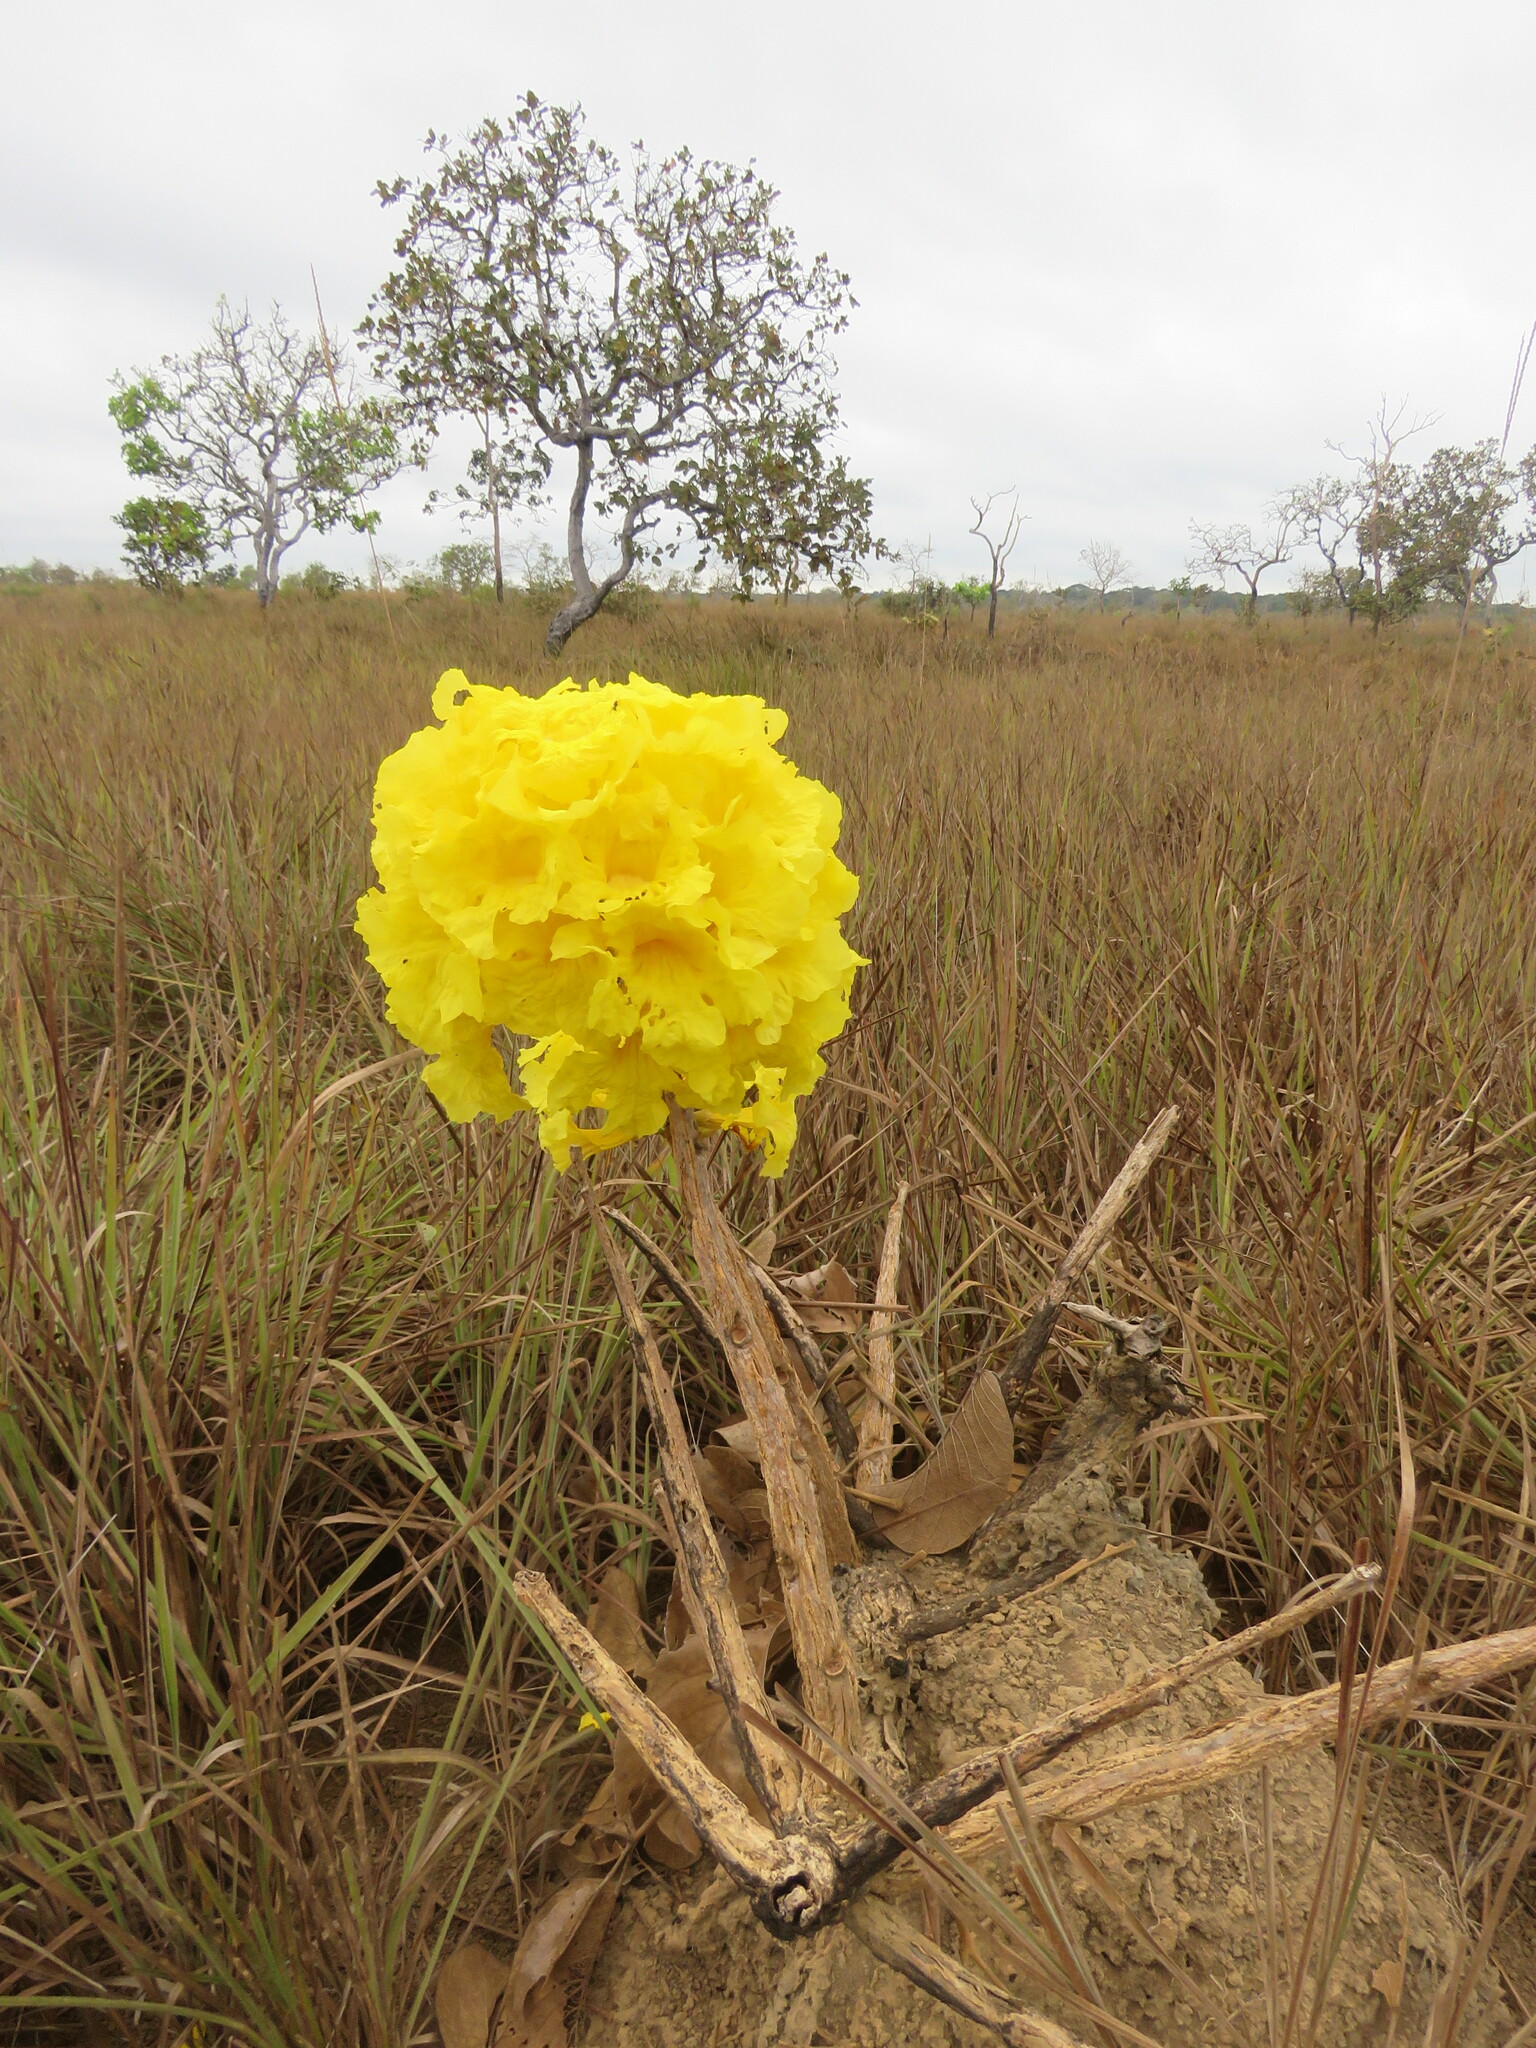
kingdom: Plantae
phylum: Tracheophyta
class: Magnoliopsida
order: Lamiales
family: Bignoniaceae
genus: Handroanthus
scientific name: Handroanthus ochraceus
